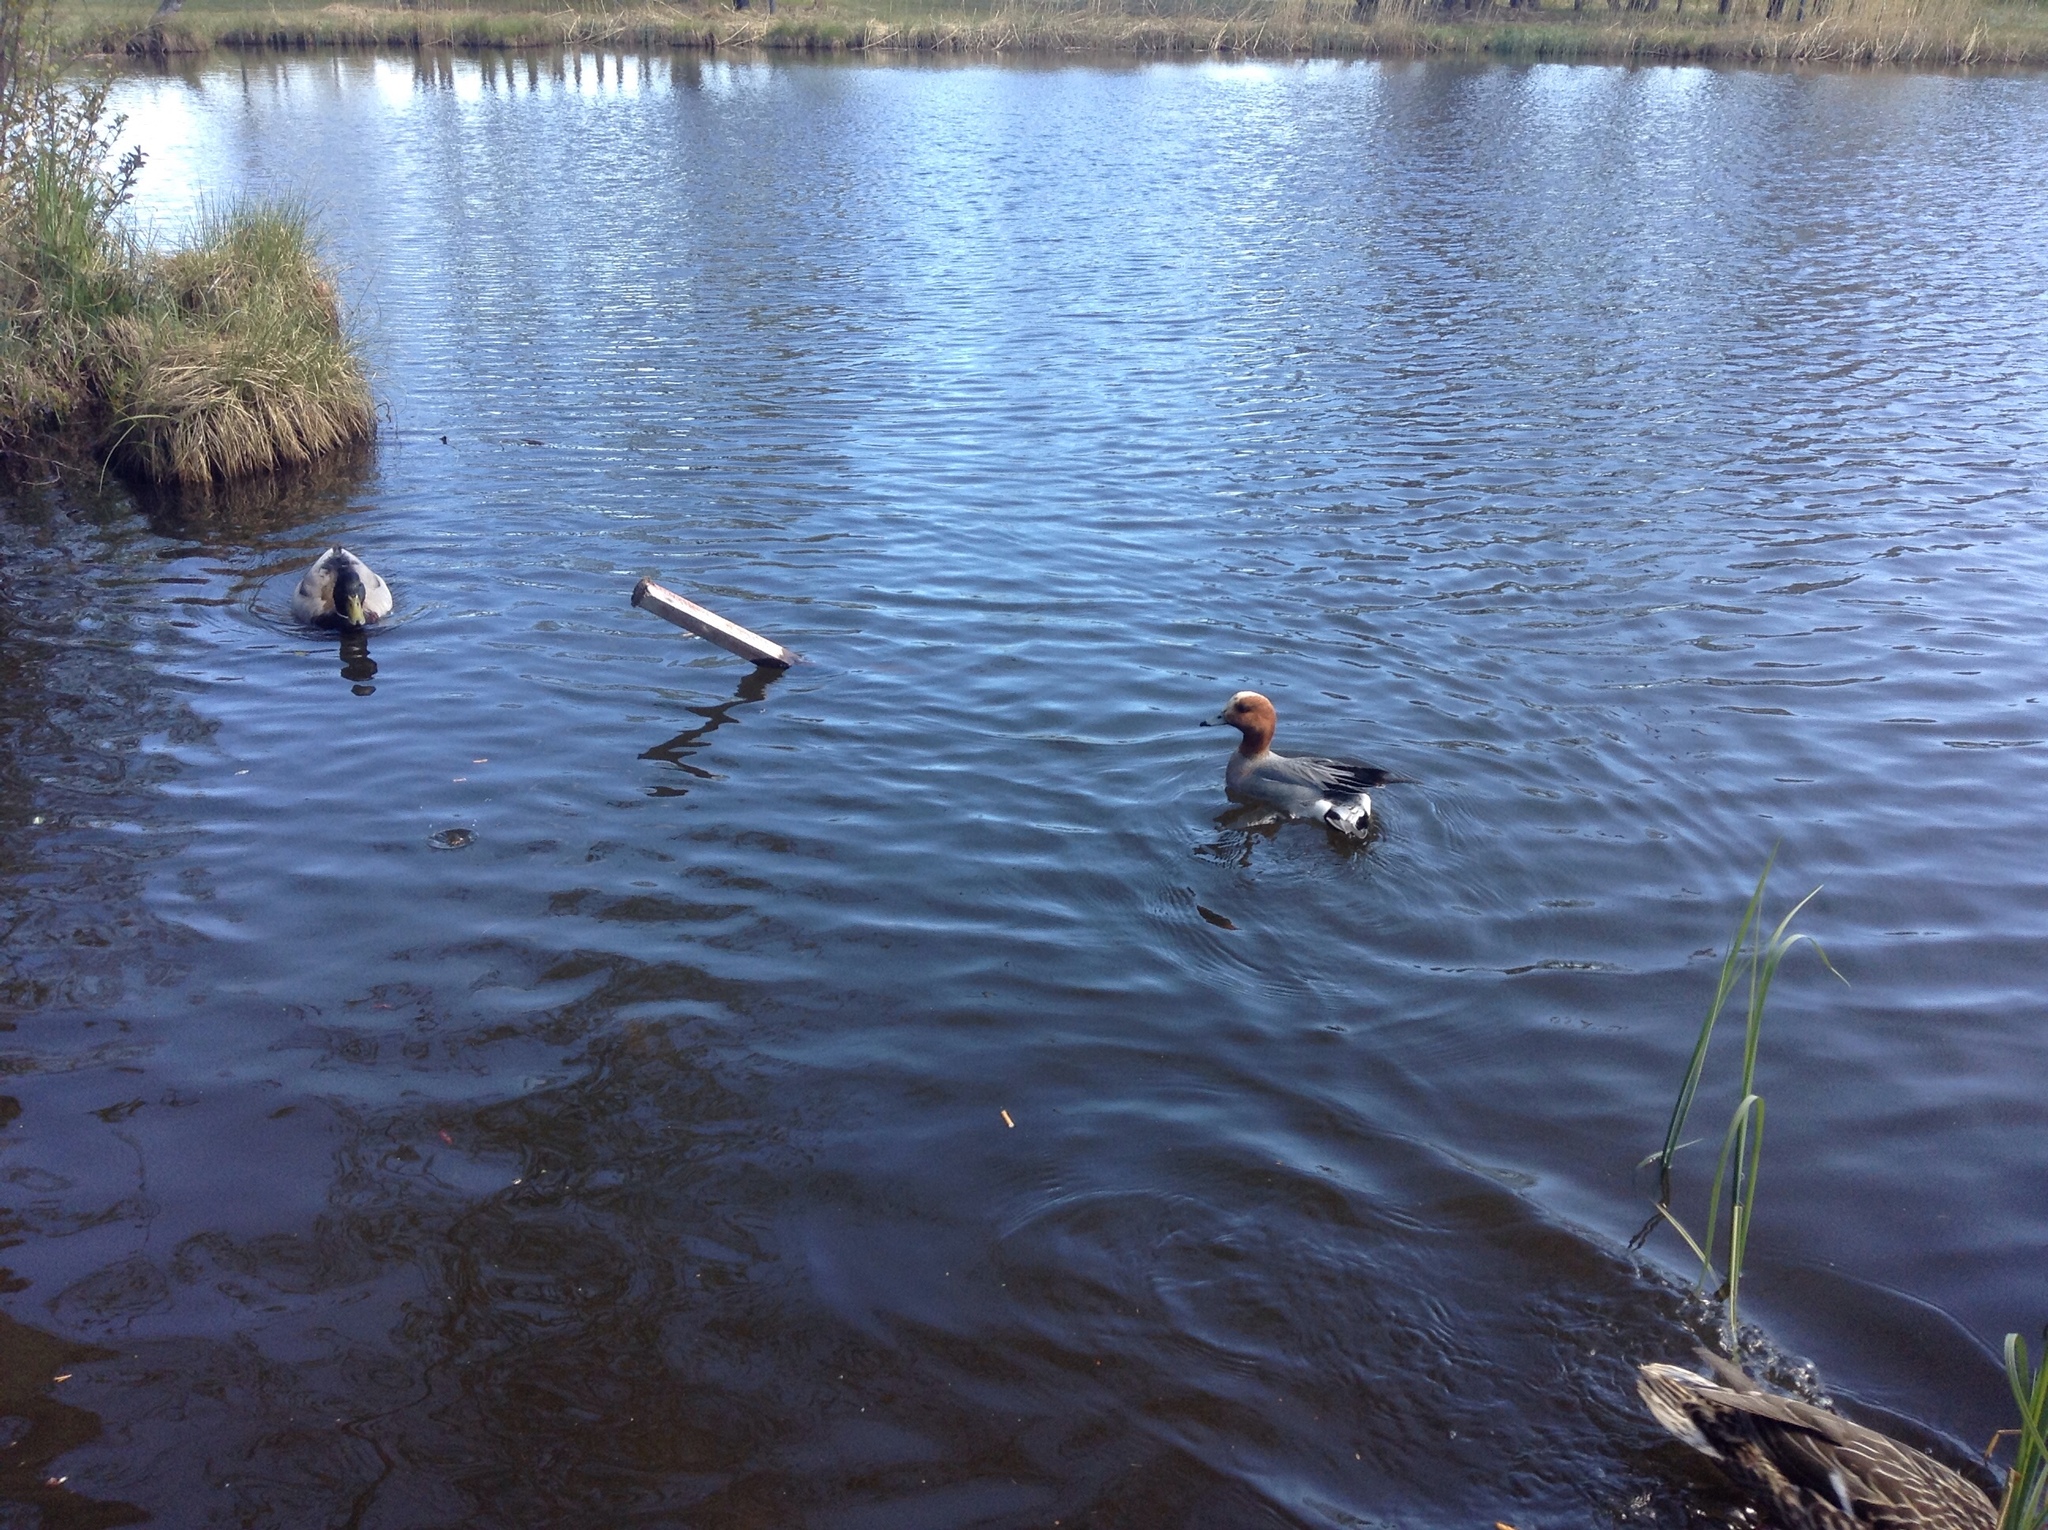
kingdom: Animalia
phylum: Chordata
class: Aves
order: Anseriformes
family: Anatidae
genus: Mareca
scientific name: Mareca penelope
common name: Eurasian wigeon
